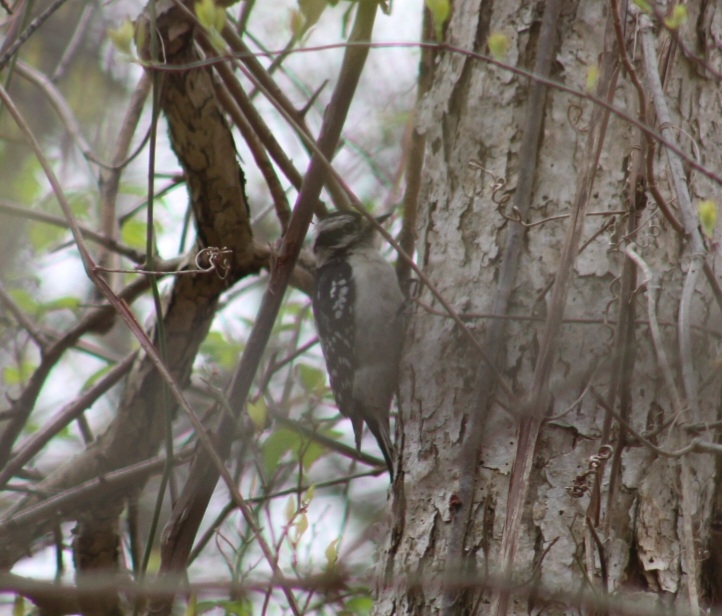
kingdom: Animalia
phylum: Chordata
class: Aves
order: Piciformes
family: Picidae
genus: Dryobates
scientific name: Dryobates pubescens
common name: Downy woodpecker
